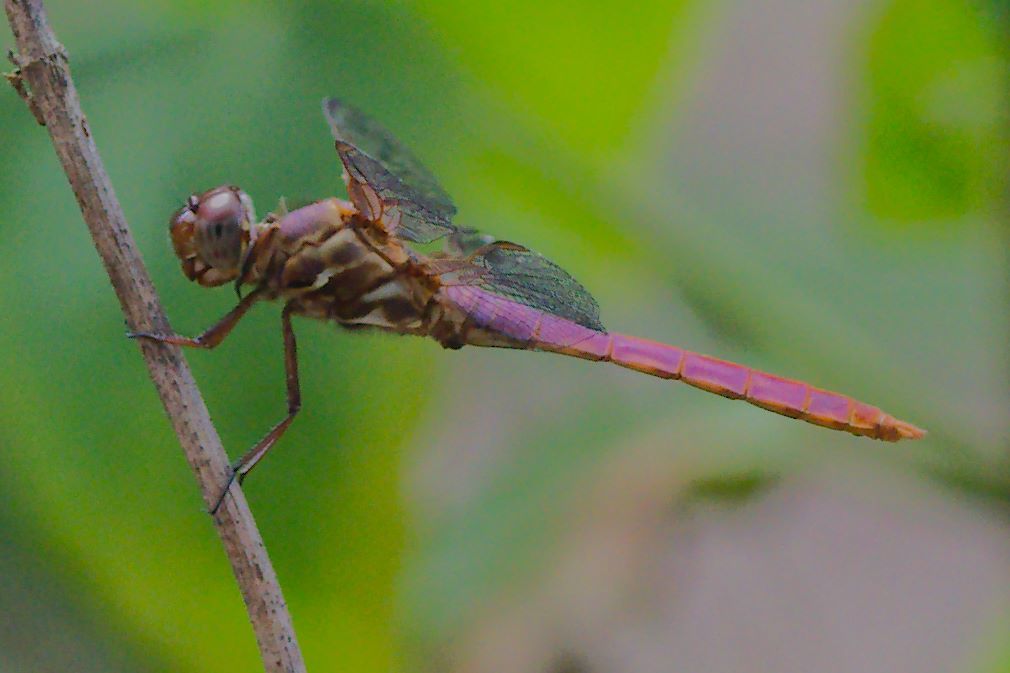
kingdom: Animalia
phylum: Arthropoda
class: Insecta
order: Odonata
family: Libellulidae
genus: Orthemis
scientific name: Orthemis ferruginea
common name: Roseate skimmer
